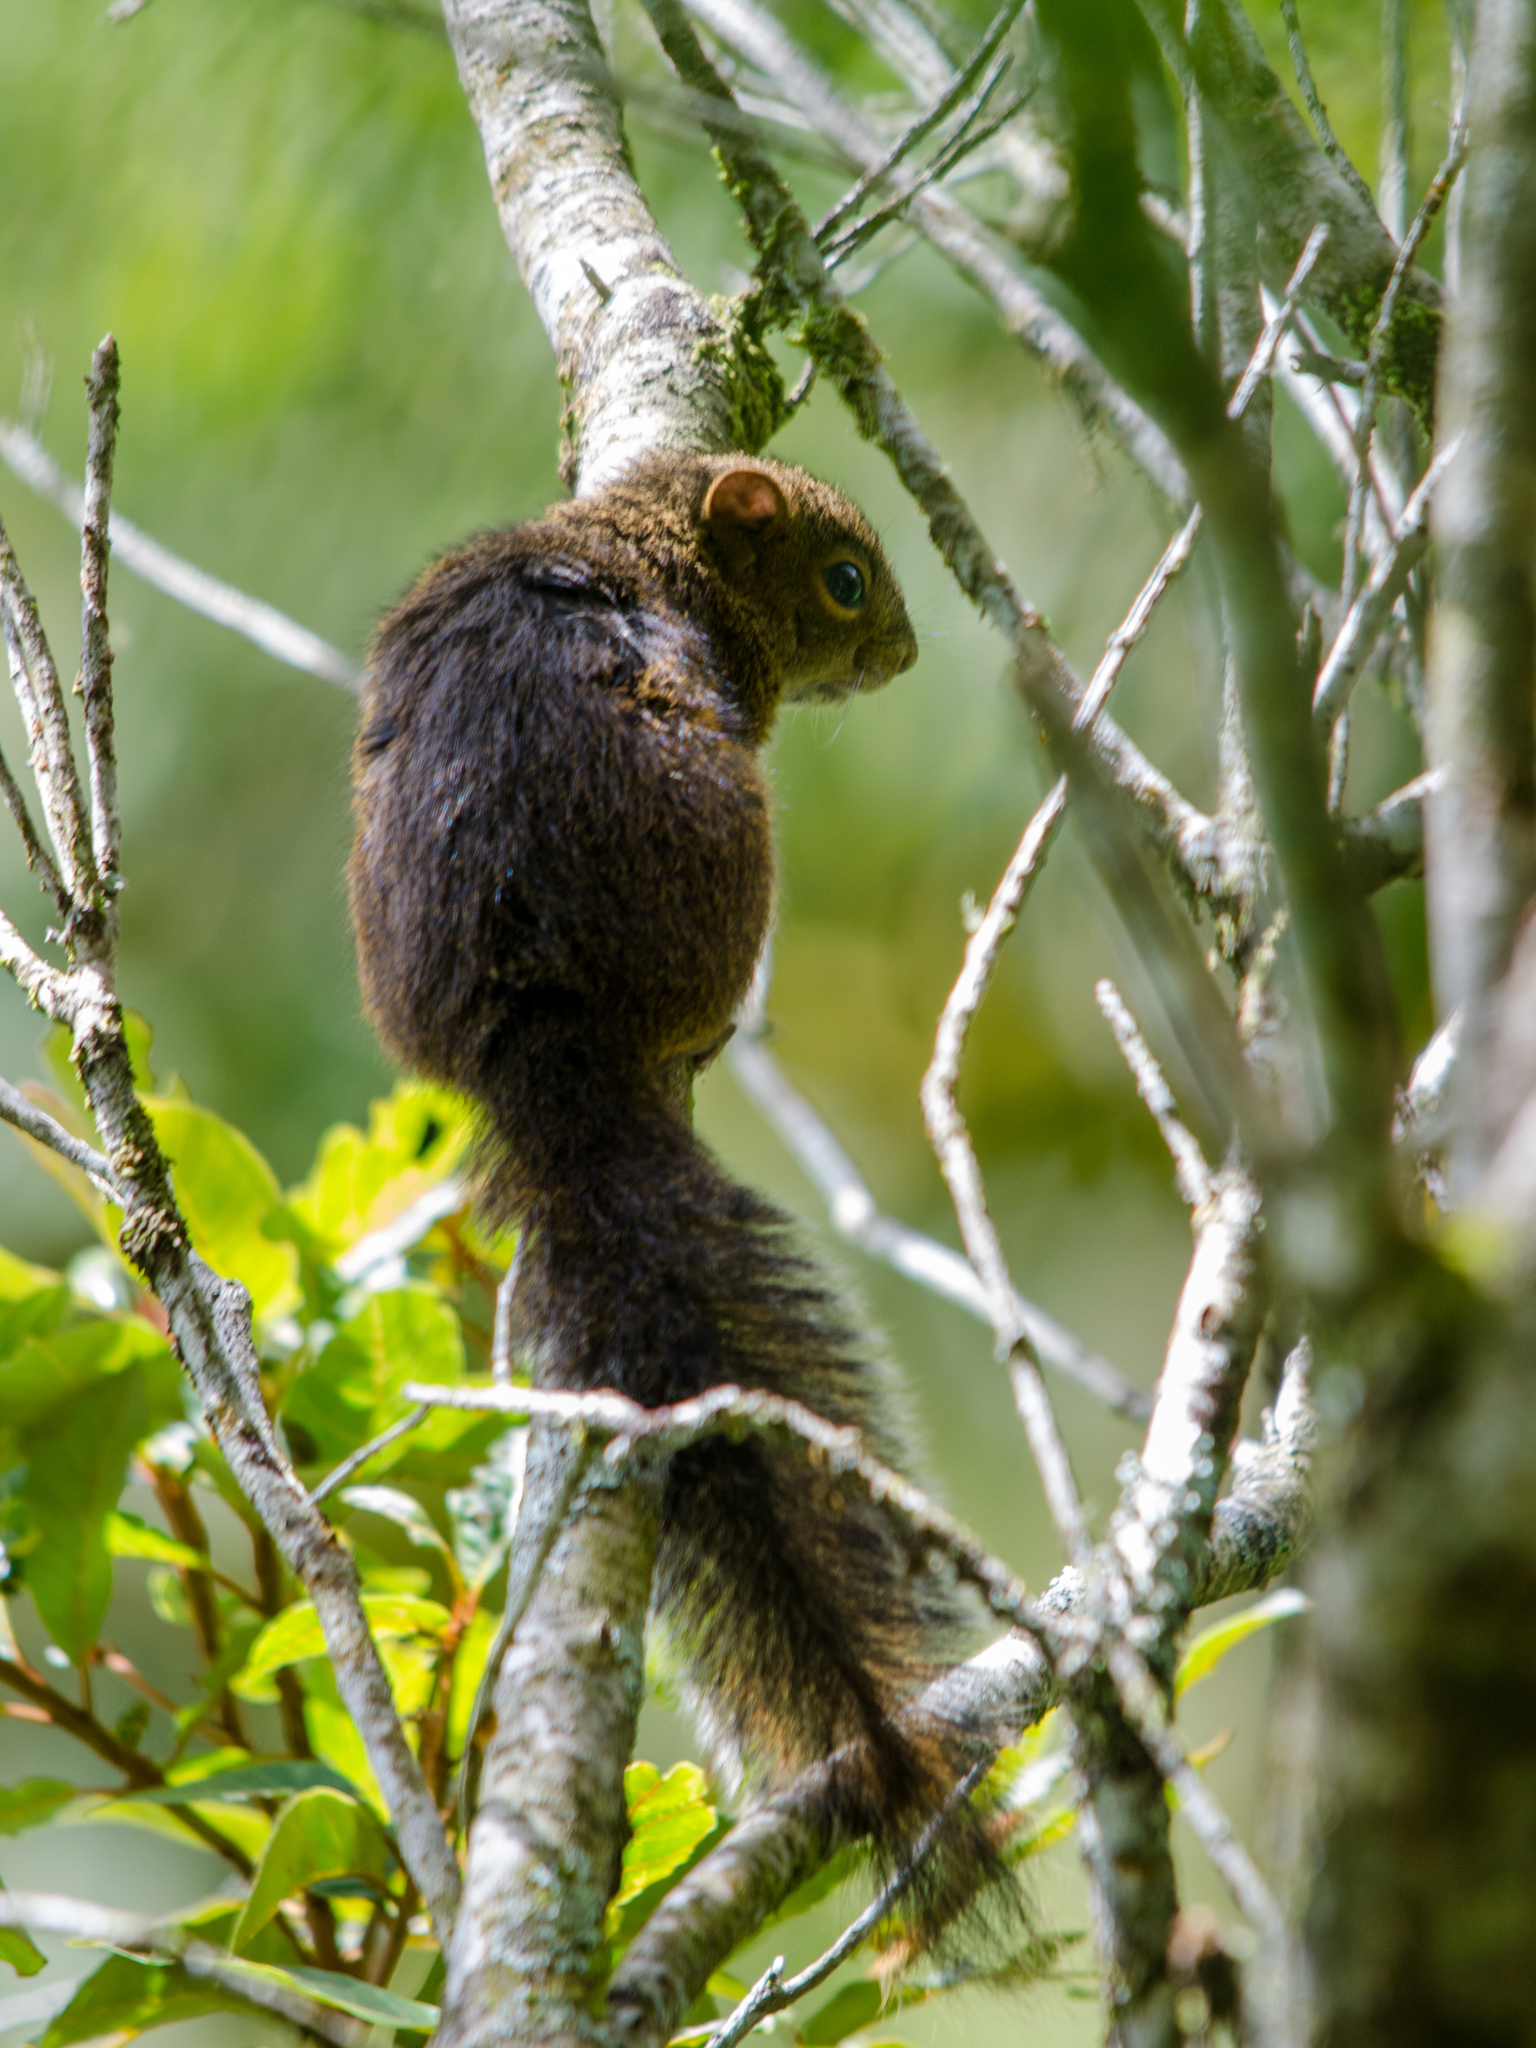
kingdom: Animalia
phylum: Chordata
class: Mammalia
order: Rodentia
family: Sciuridae
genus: Sciurus
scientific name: Sciurus deppei
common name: Deppe's squirrel
